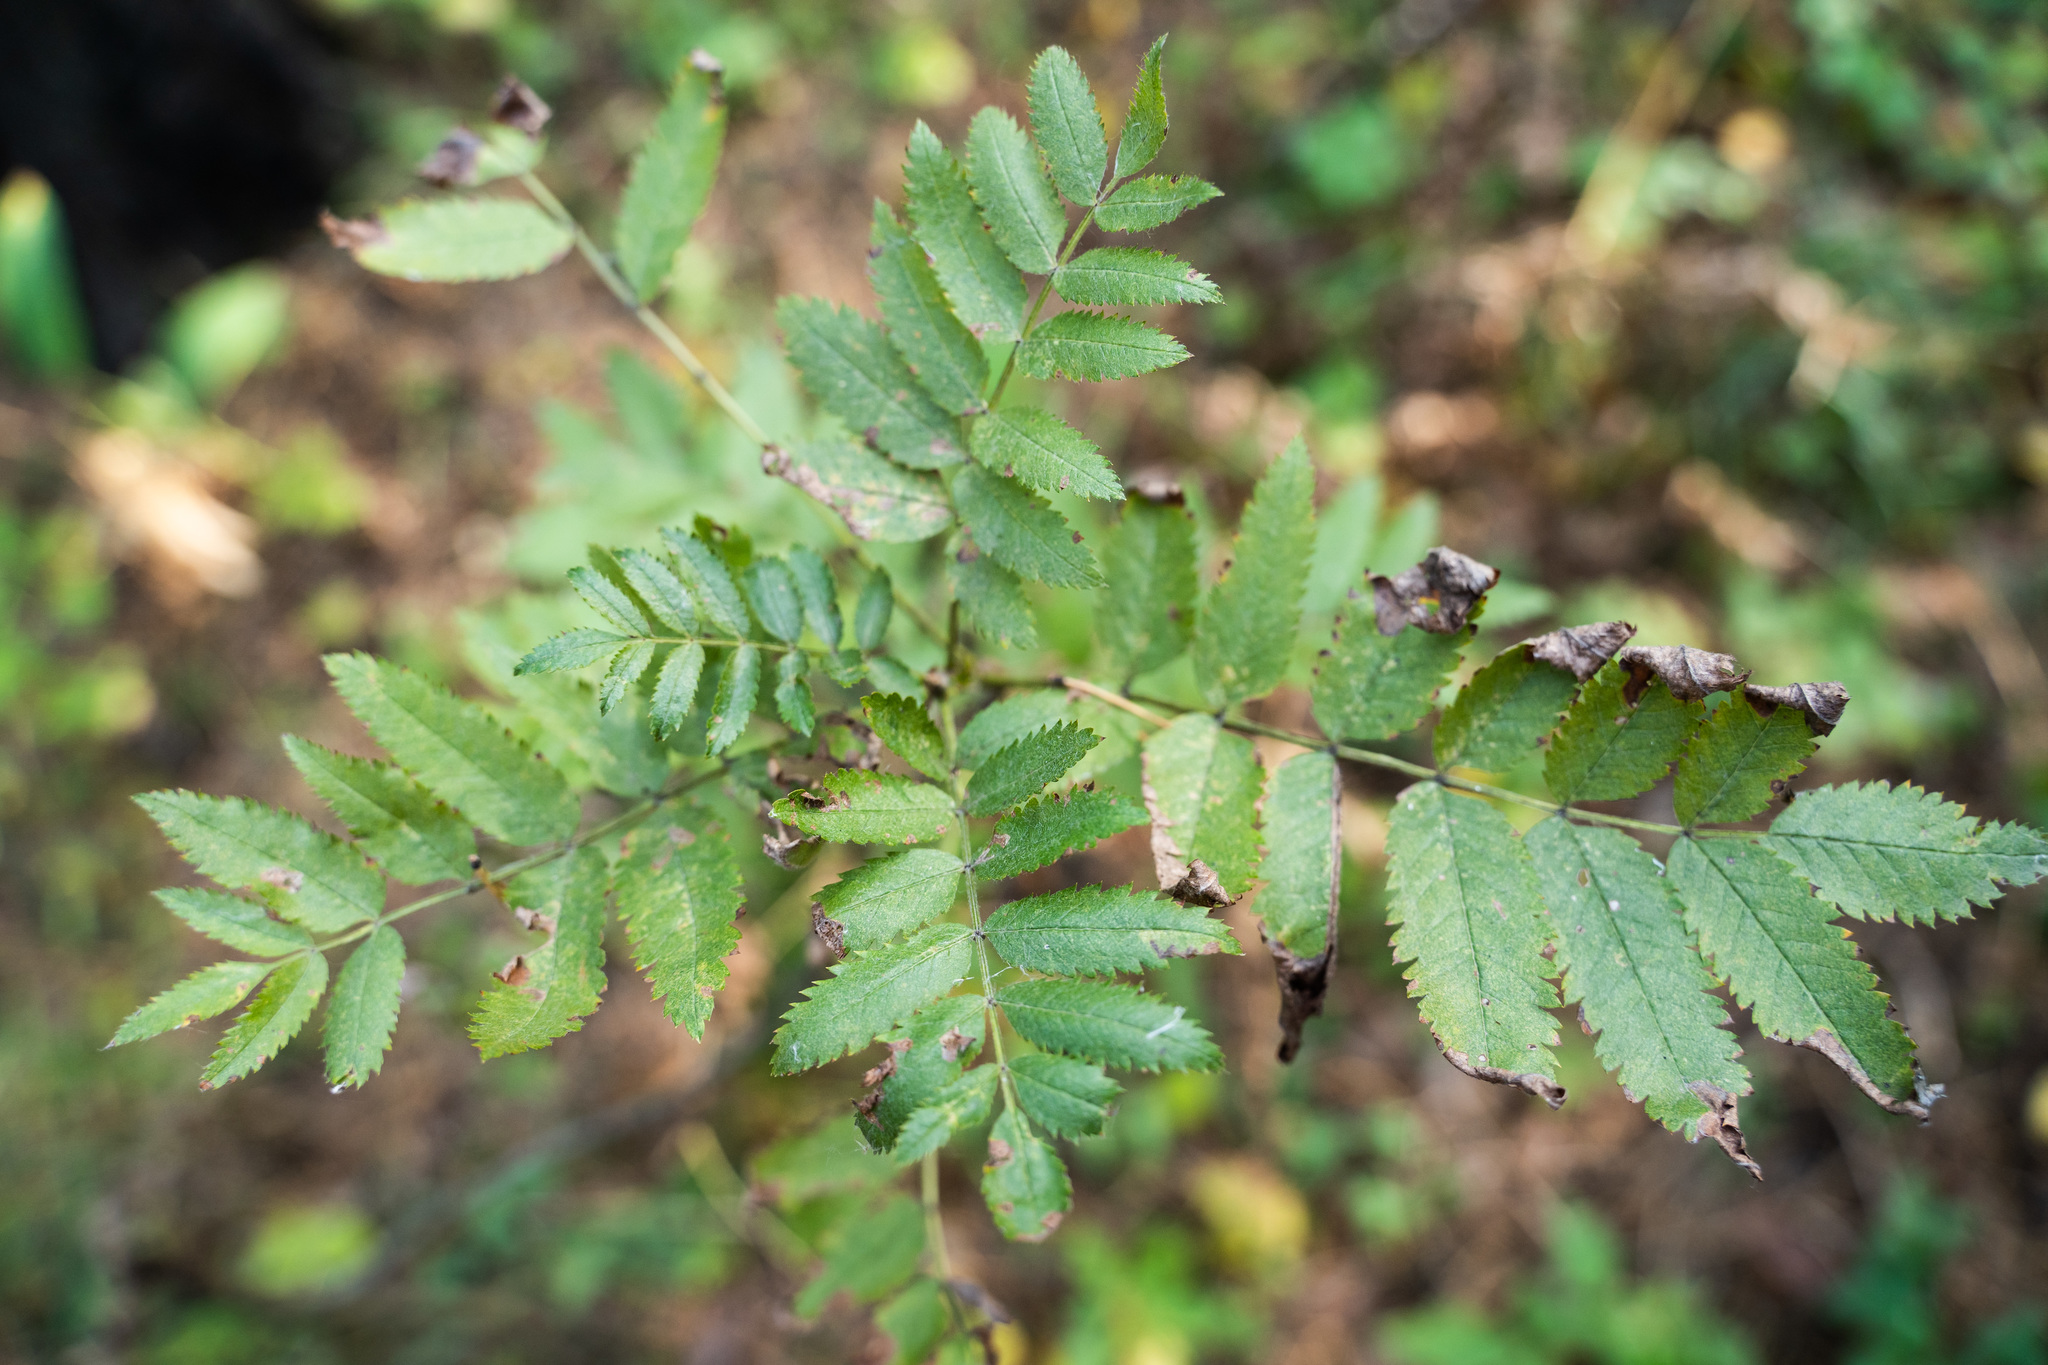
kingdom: Plantae
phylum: Tracheophyta
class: Magnoliopsida
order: Rosales
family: Rosaceae
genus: Sorbus
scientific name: Sorbus aucuparia
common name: Rowan
